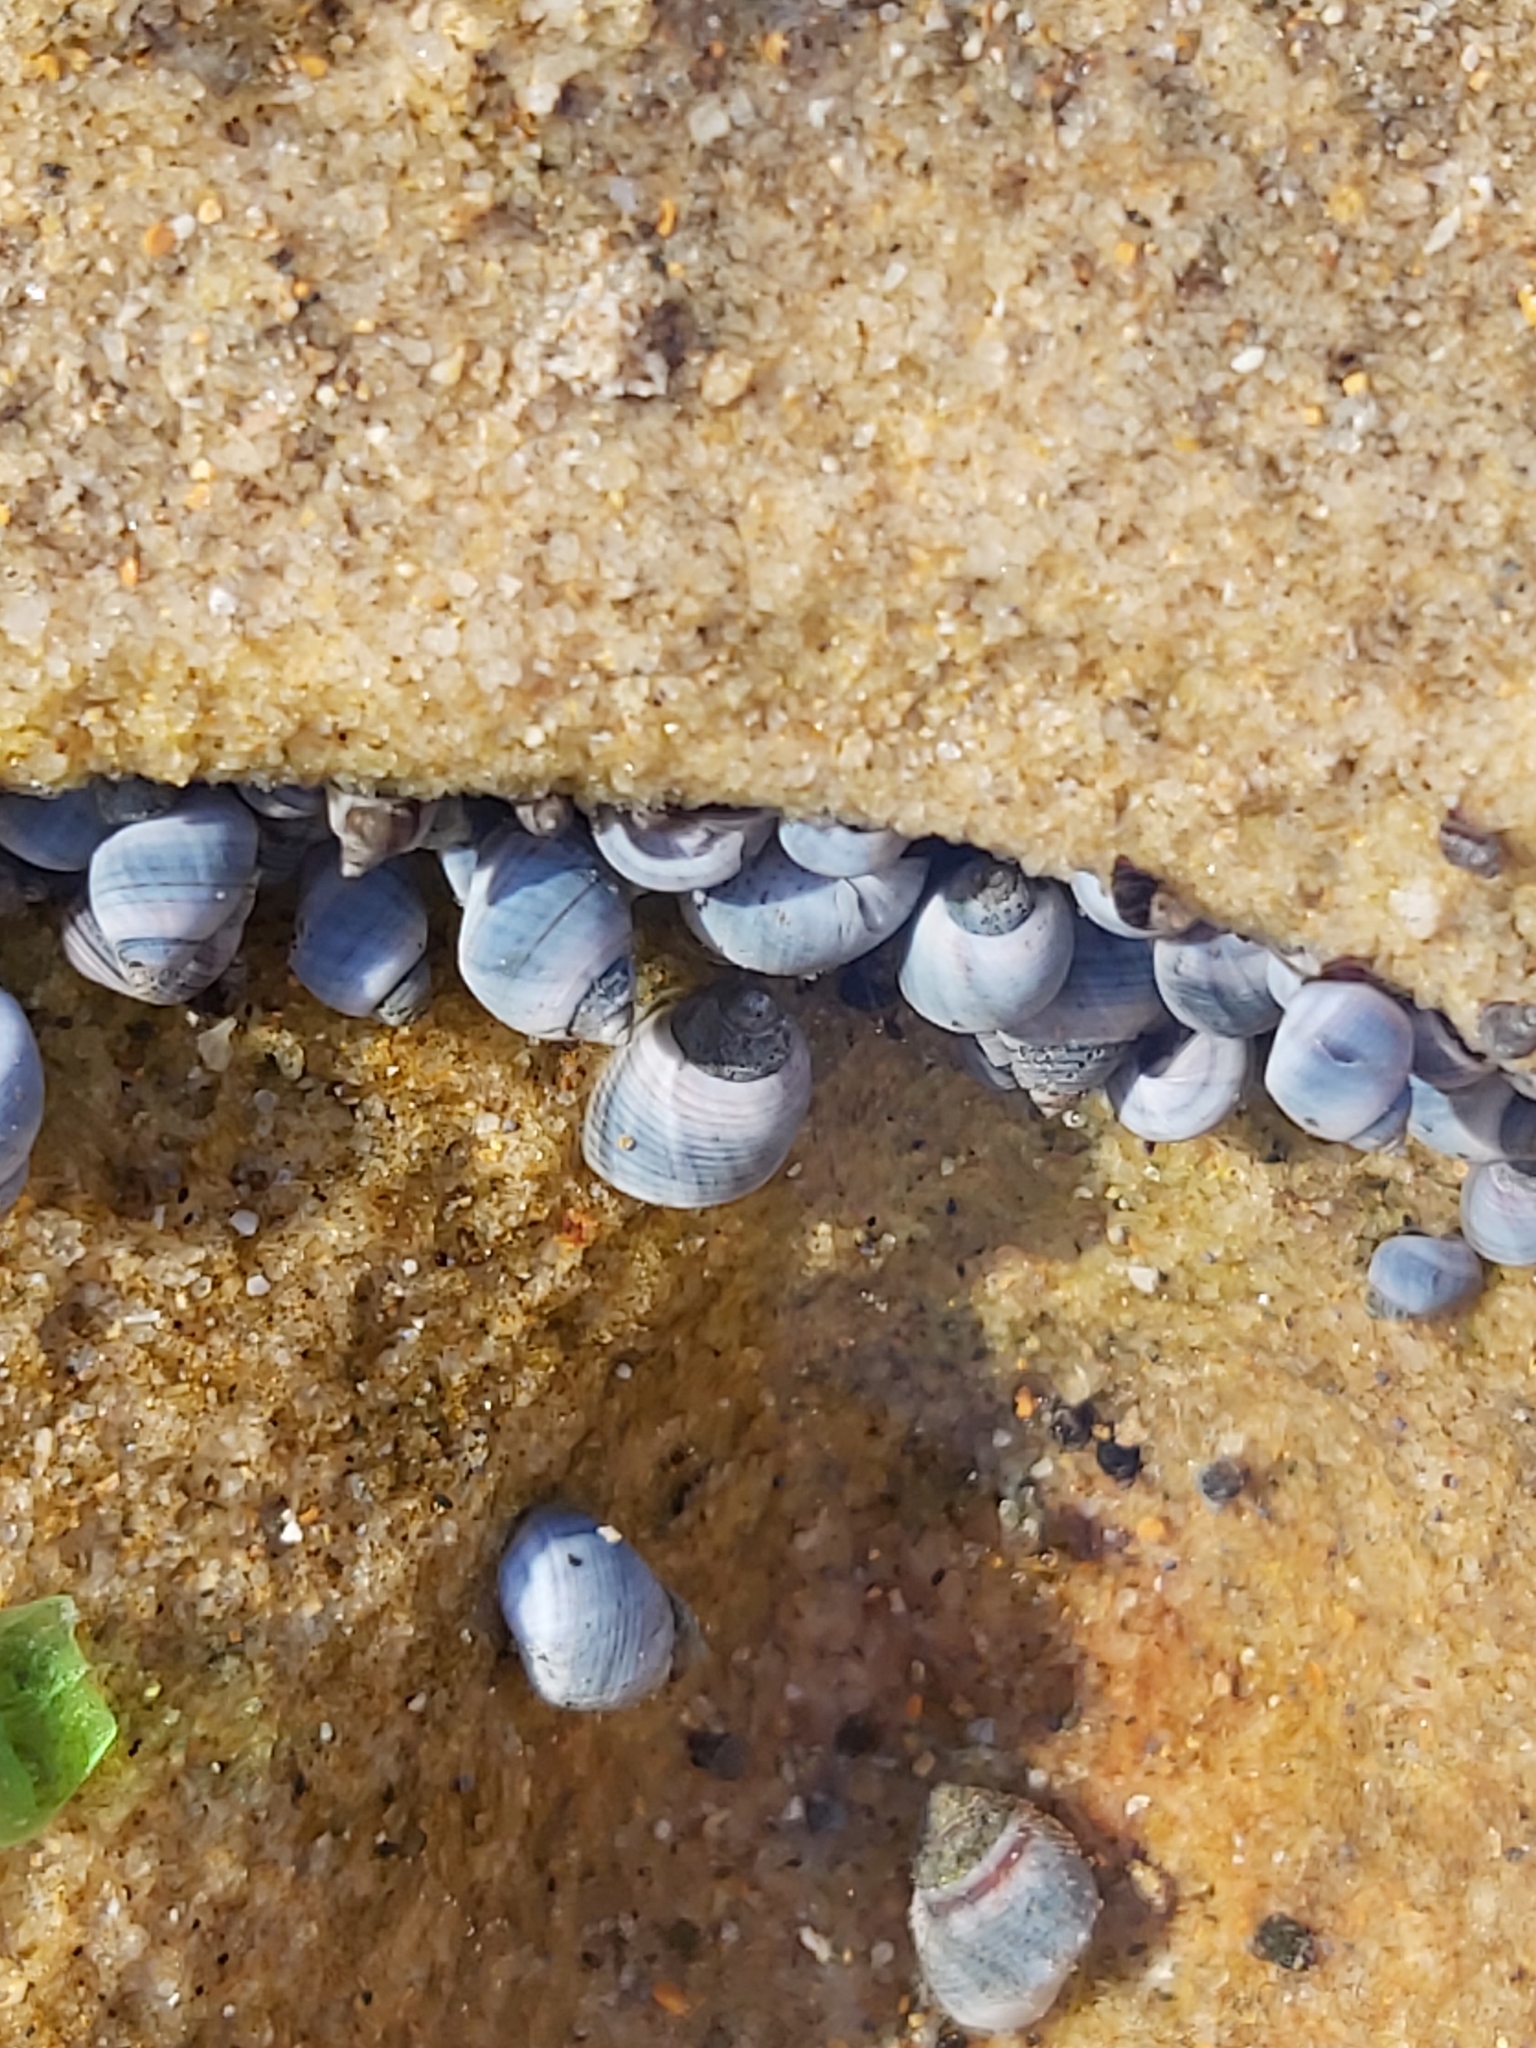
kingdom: Animalia
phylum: Mollusca
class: Gastropoda
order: Littorinimorpha
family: Littorinidae
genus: Austrolittorina
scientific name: Austrolittorina unifasciata
